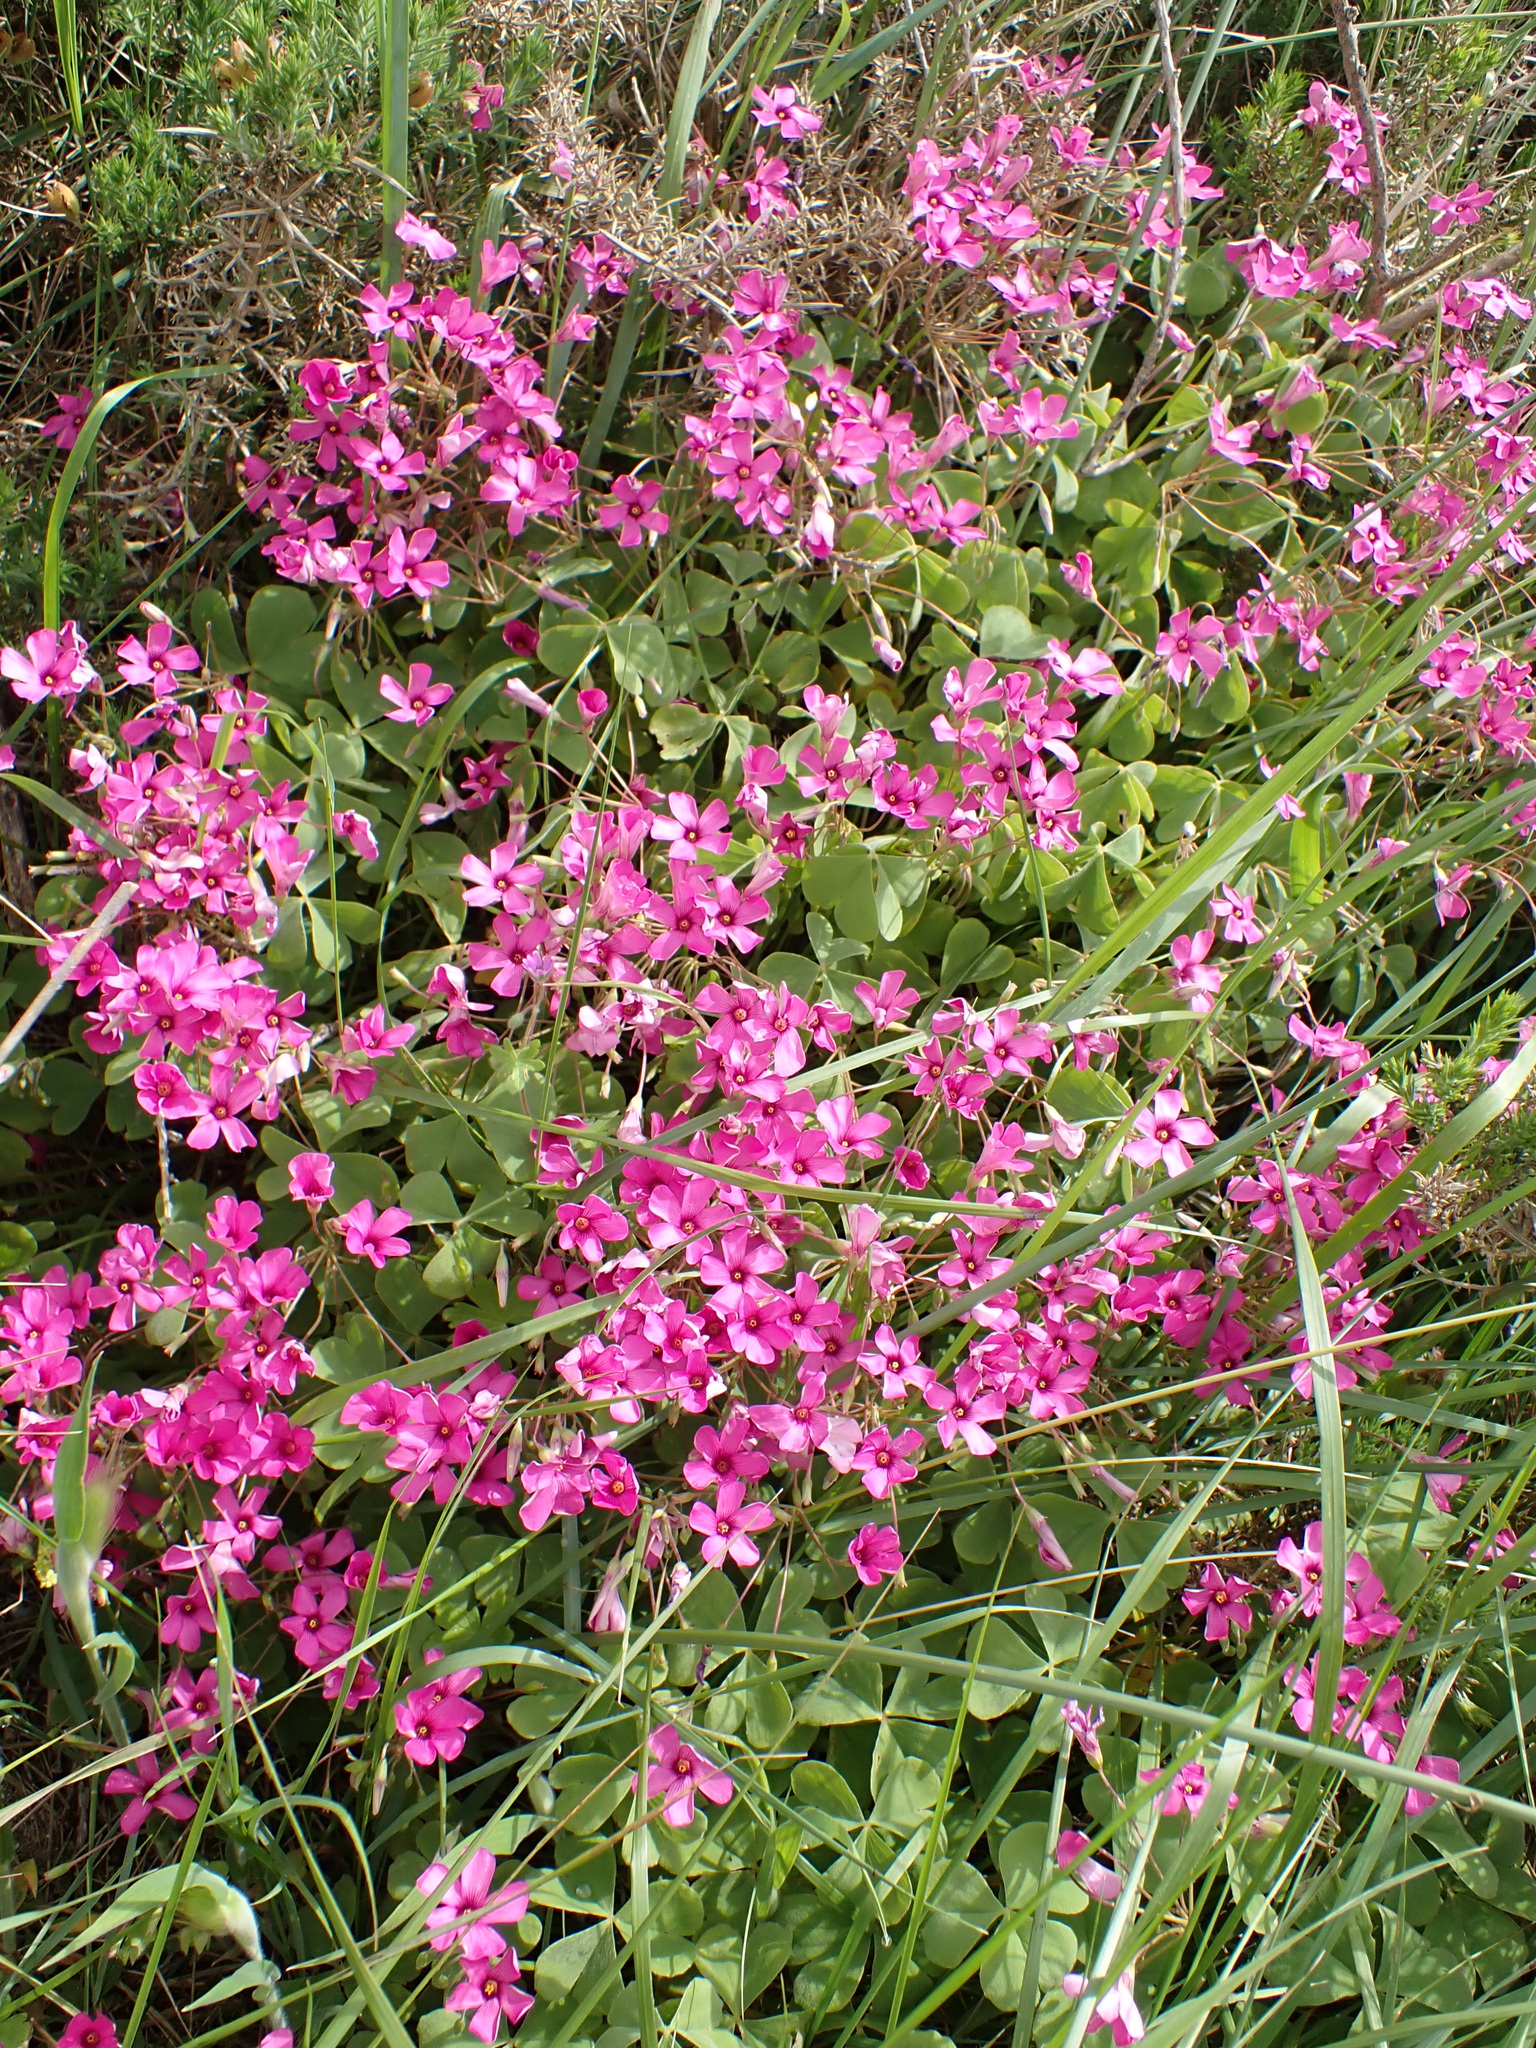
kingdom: Plantae
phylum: Tracheophyta
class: Magnoliopsida
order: Oxalidales
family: Oxalidaceae
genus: Oxalis
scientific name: Oxalis articulata
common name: Pink-sorrel
